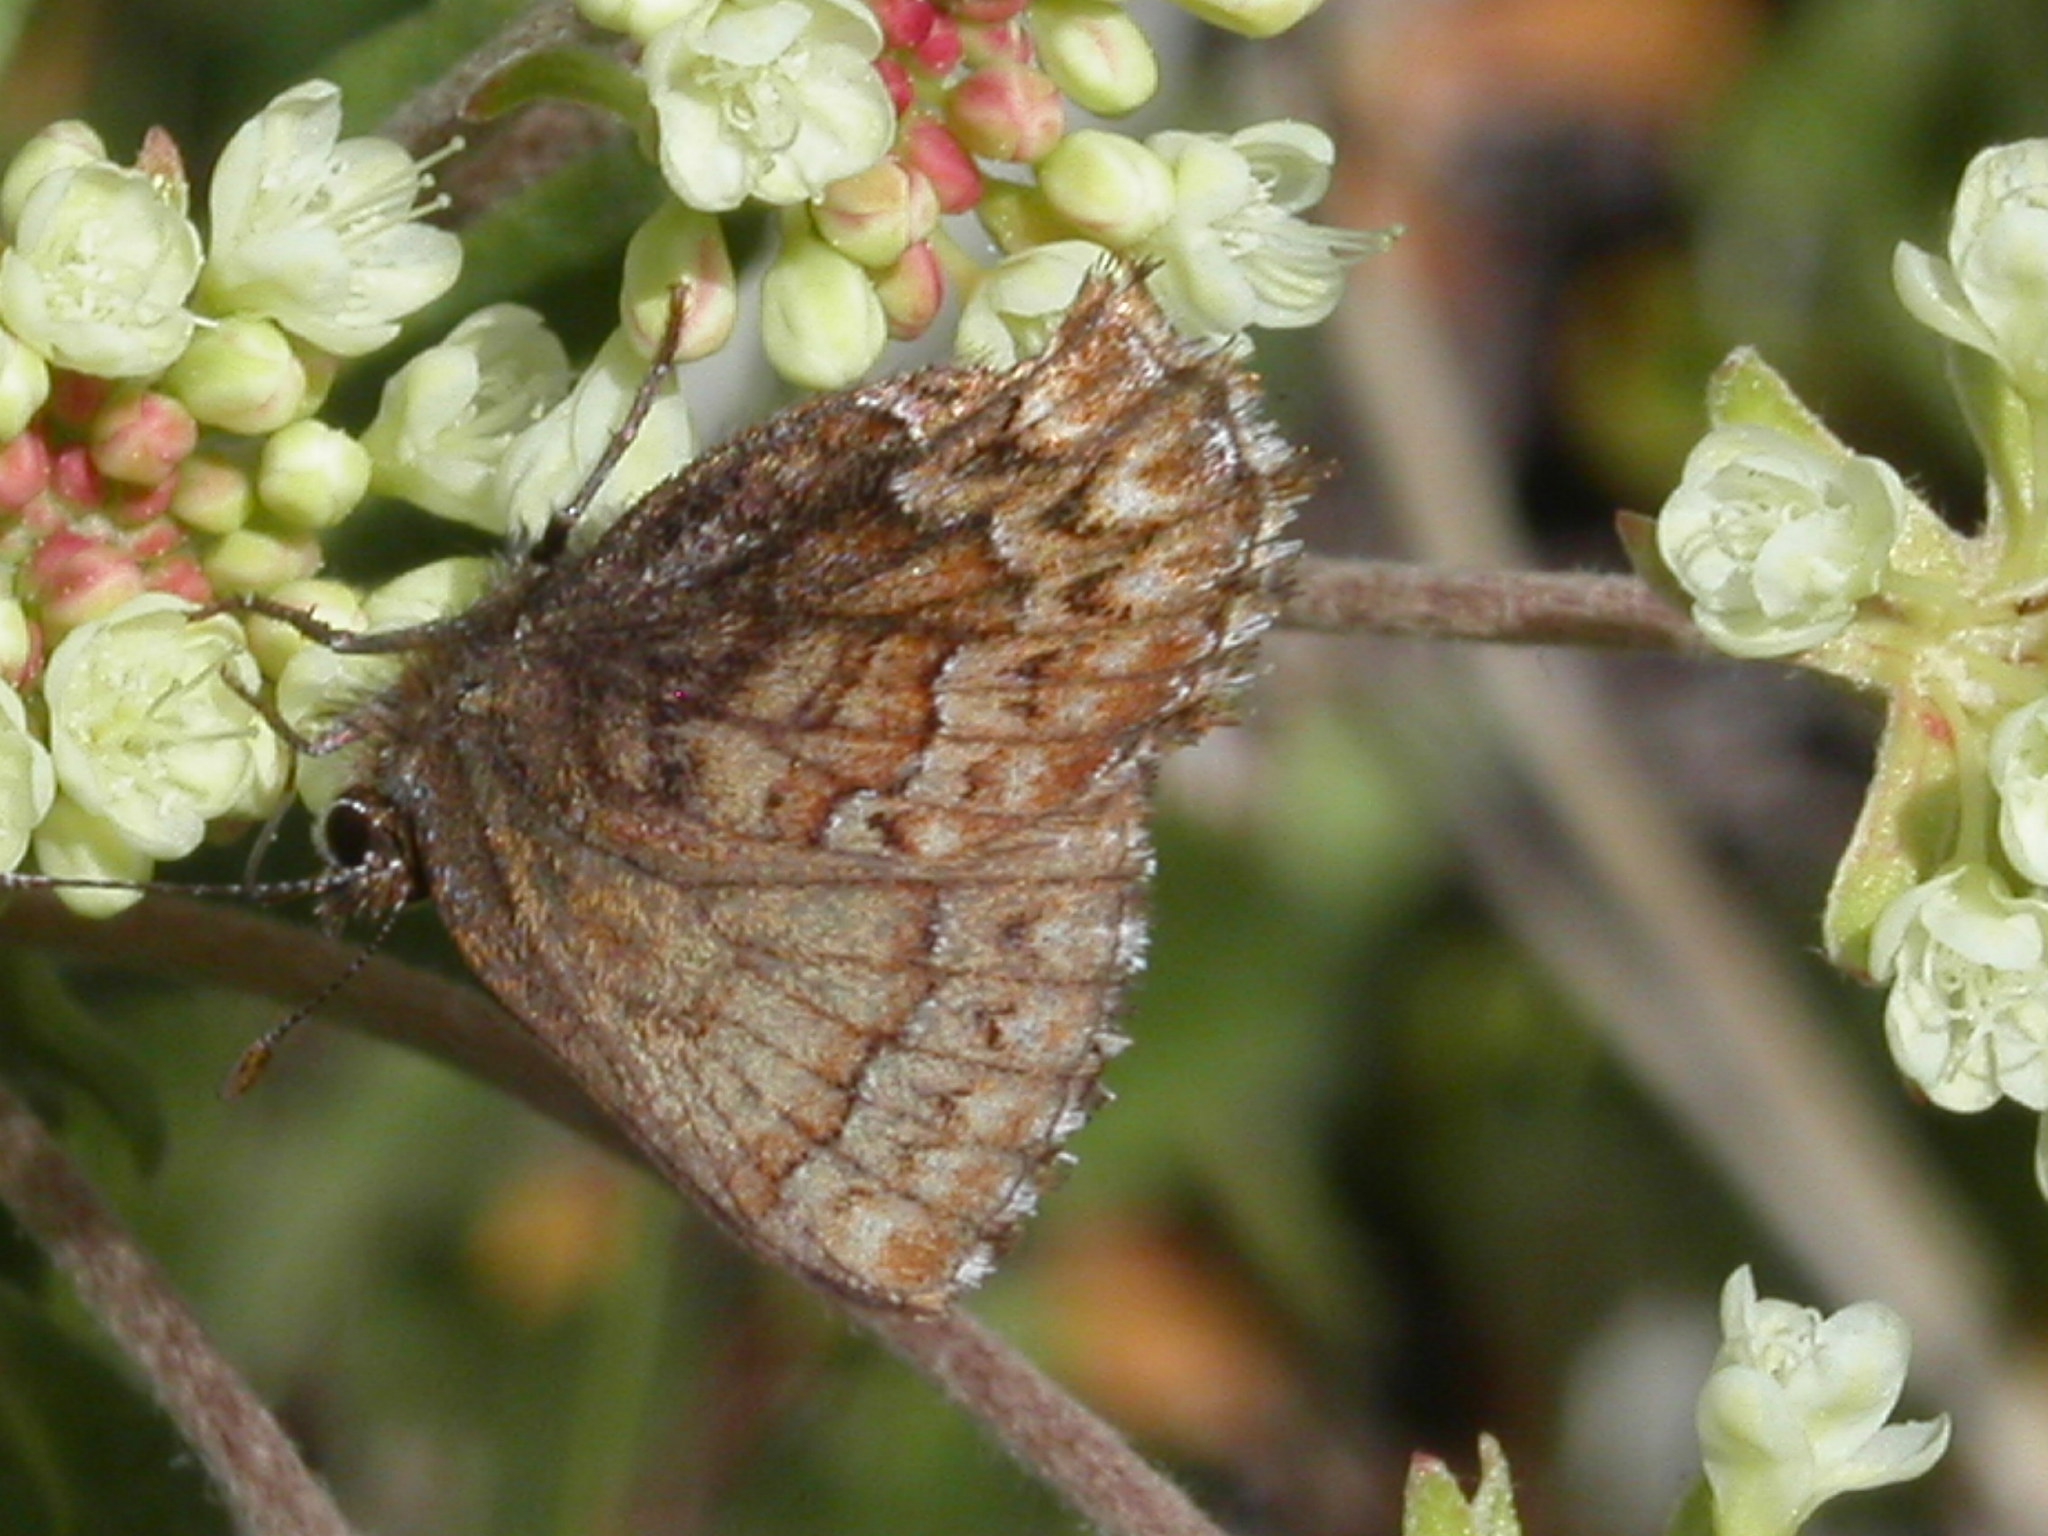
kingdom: Animalia
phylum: Arthropoda
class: Insecta
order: Lepidoptera
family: Lycaenidae
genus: Incisalia
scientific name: Incisalia eryphon
